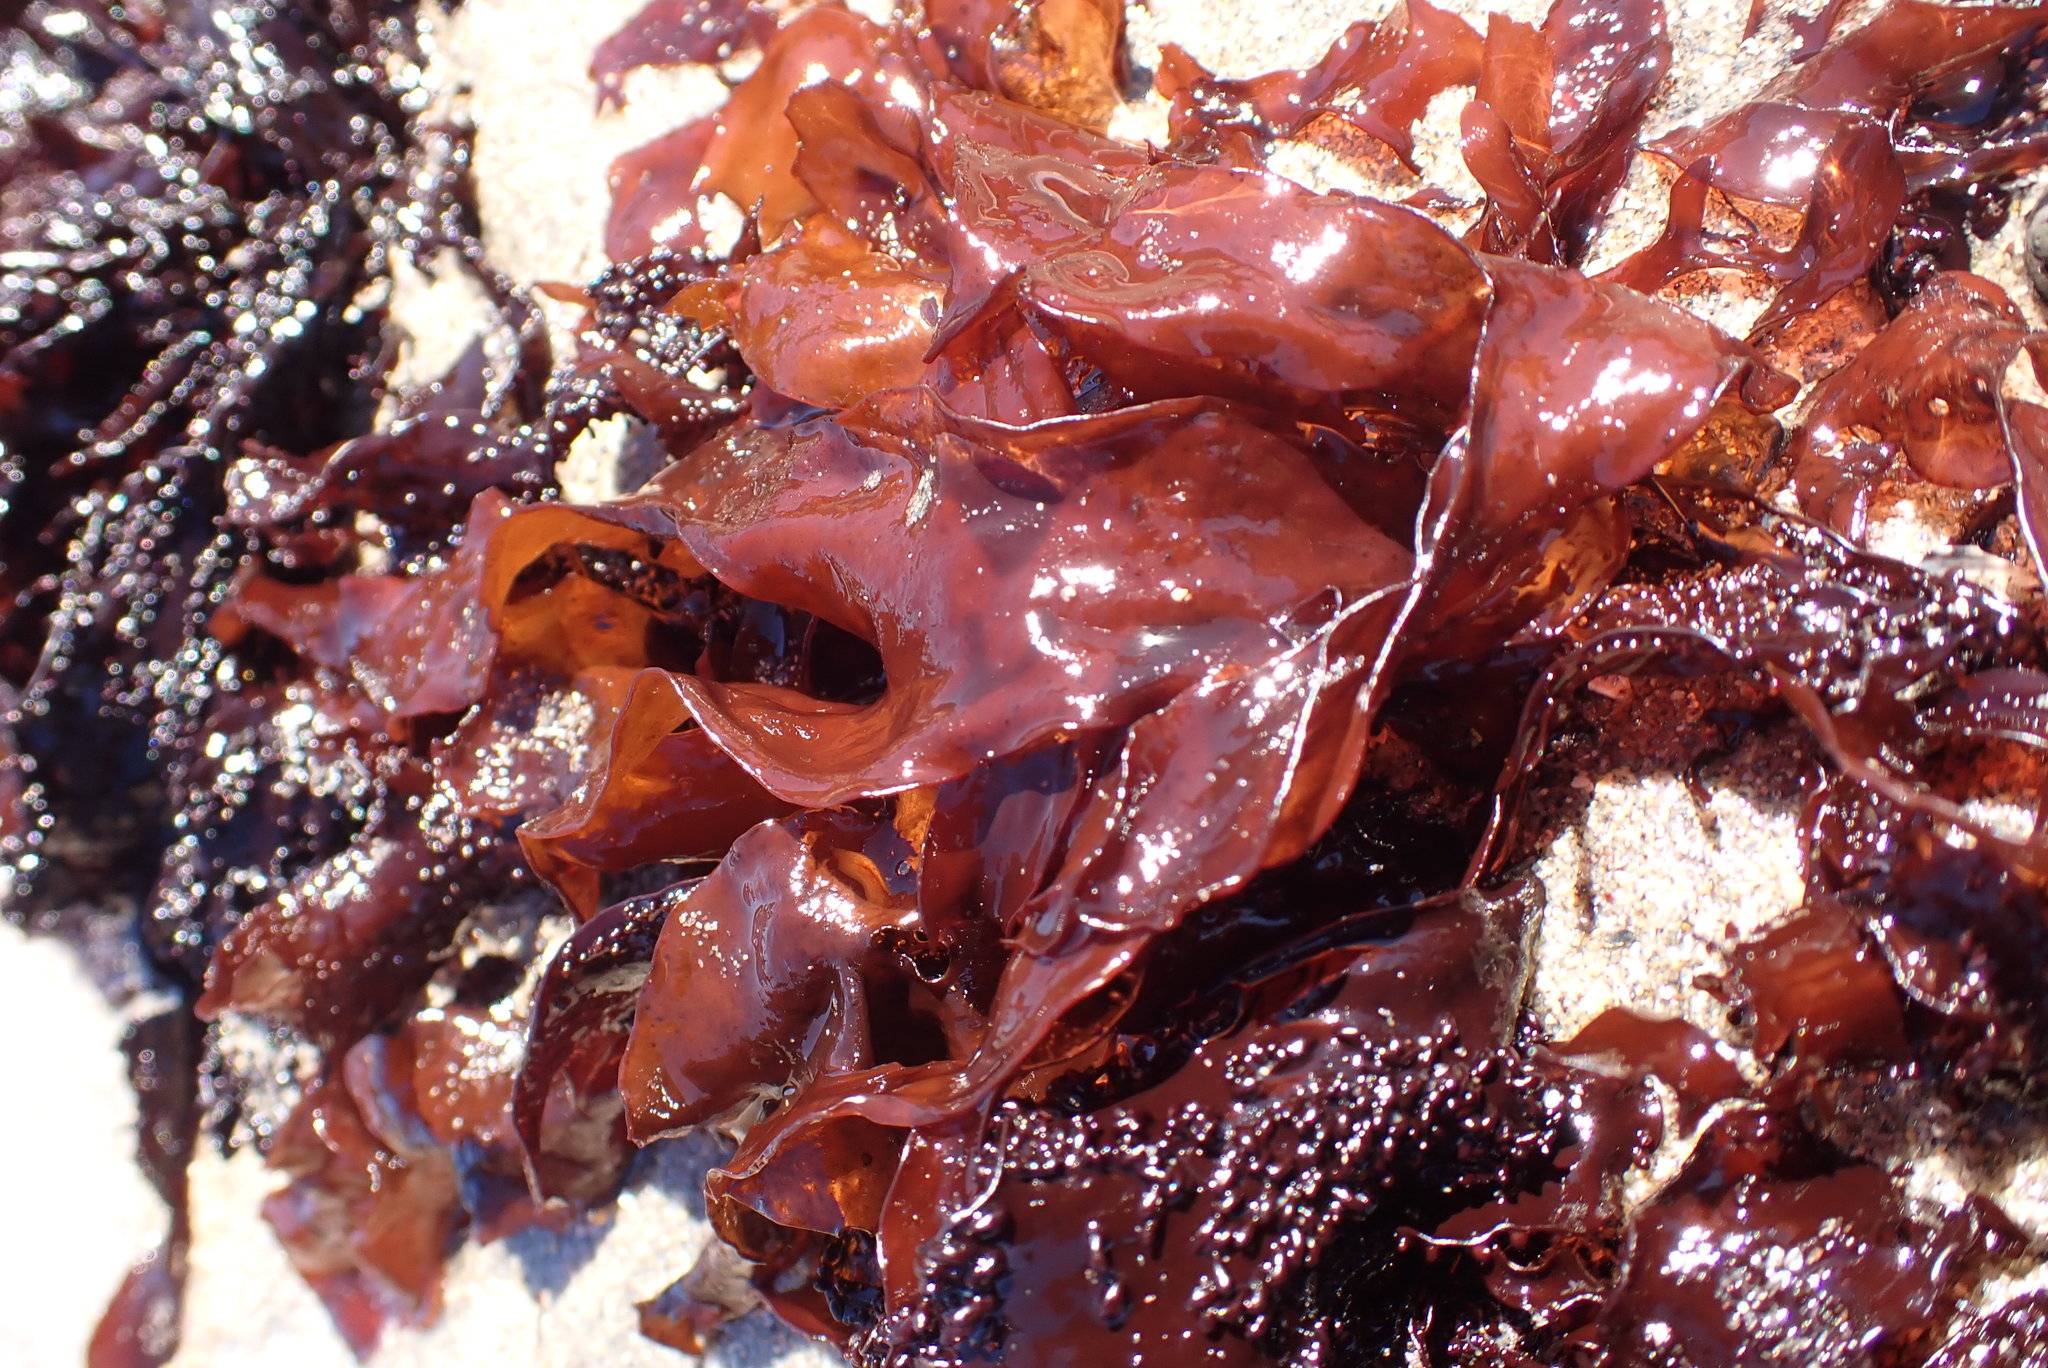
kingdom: Plantae
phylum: Rhodophyta
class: Florideophyceae
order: Gigartinales
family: Phyllophoraceae
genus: Mastocarpus
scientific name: Mastocarpus
